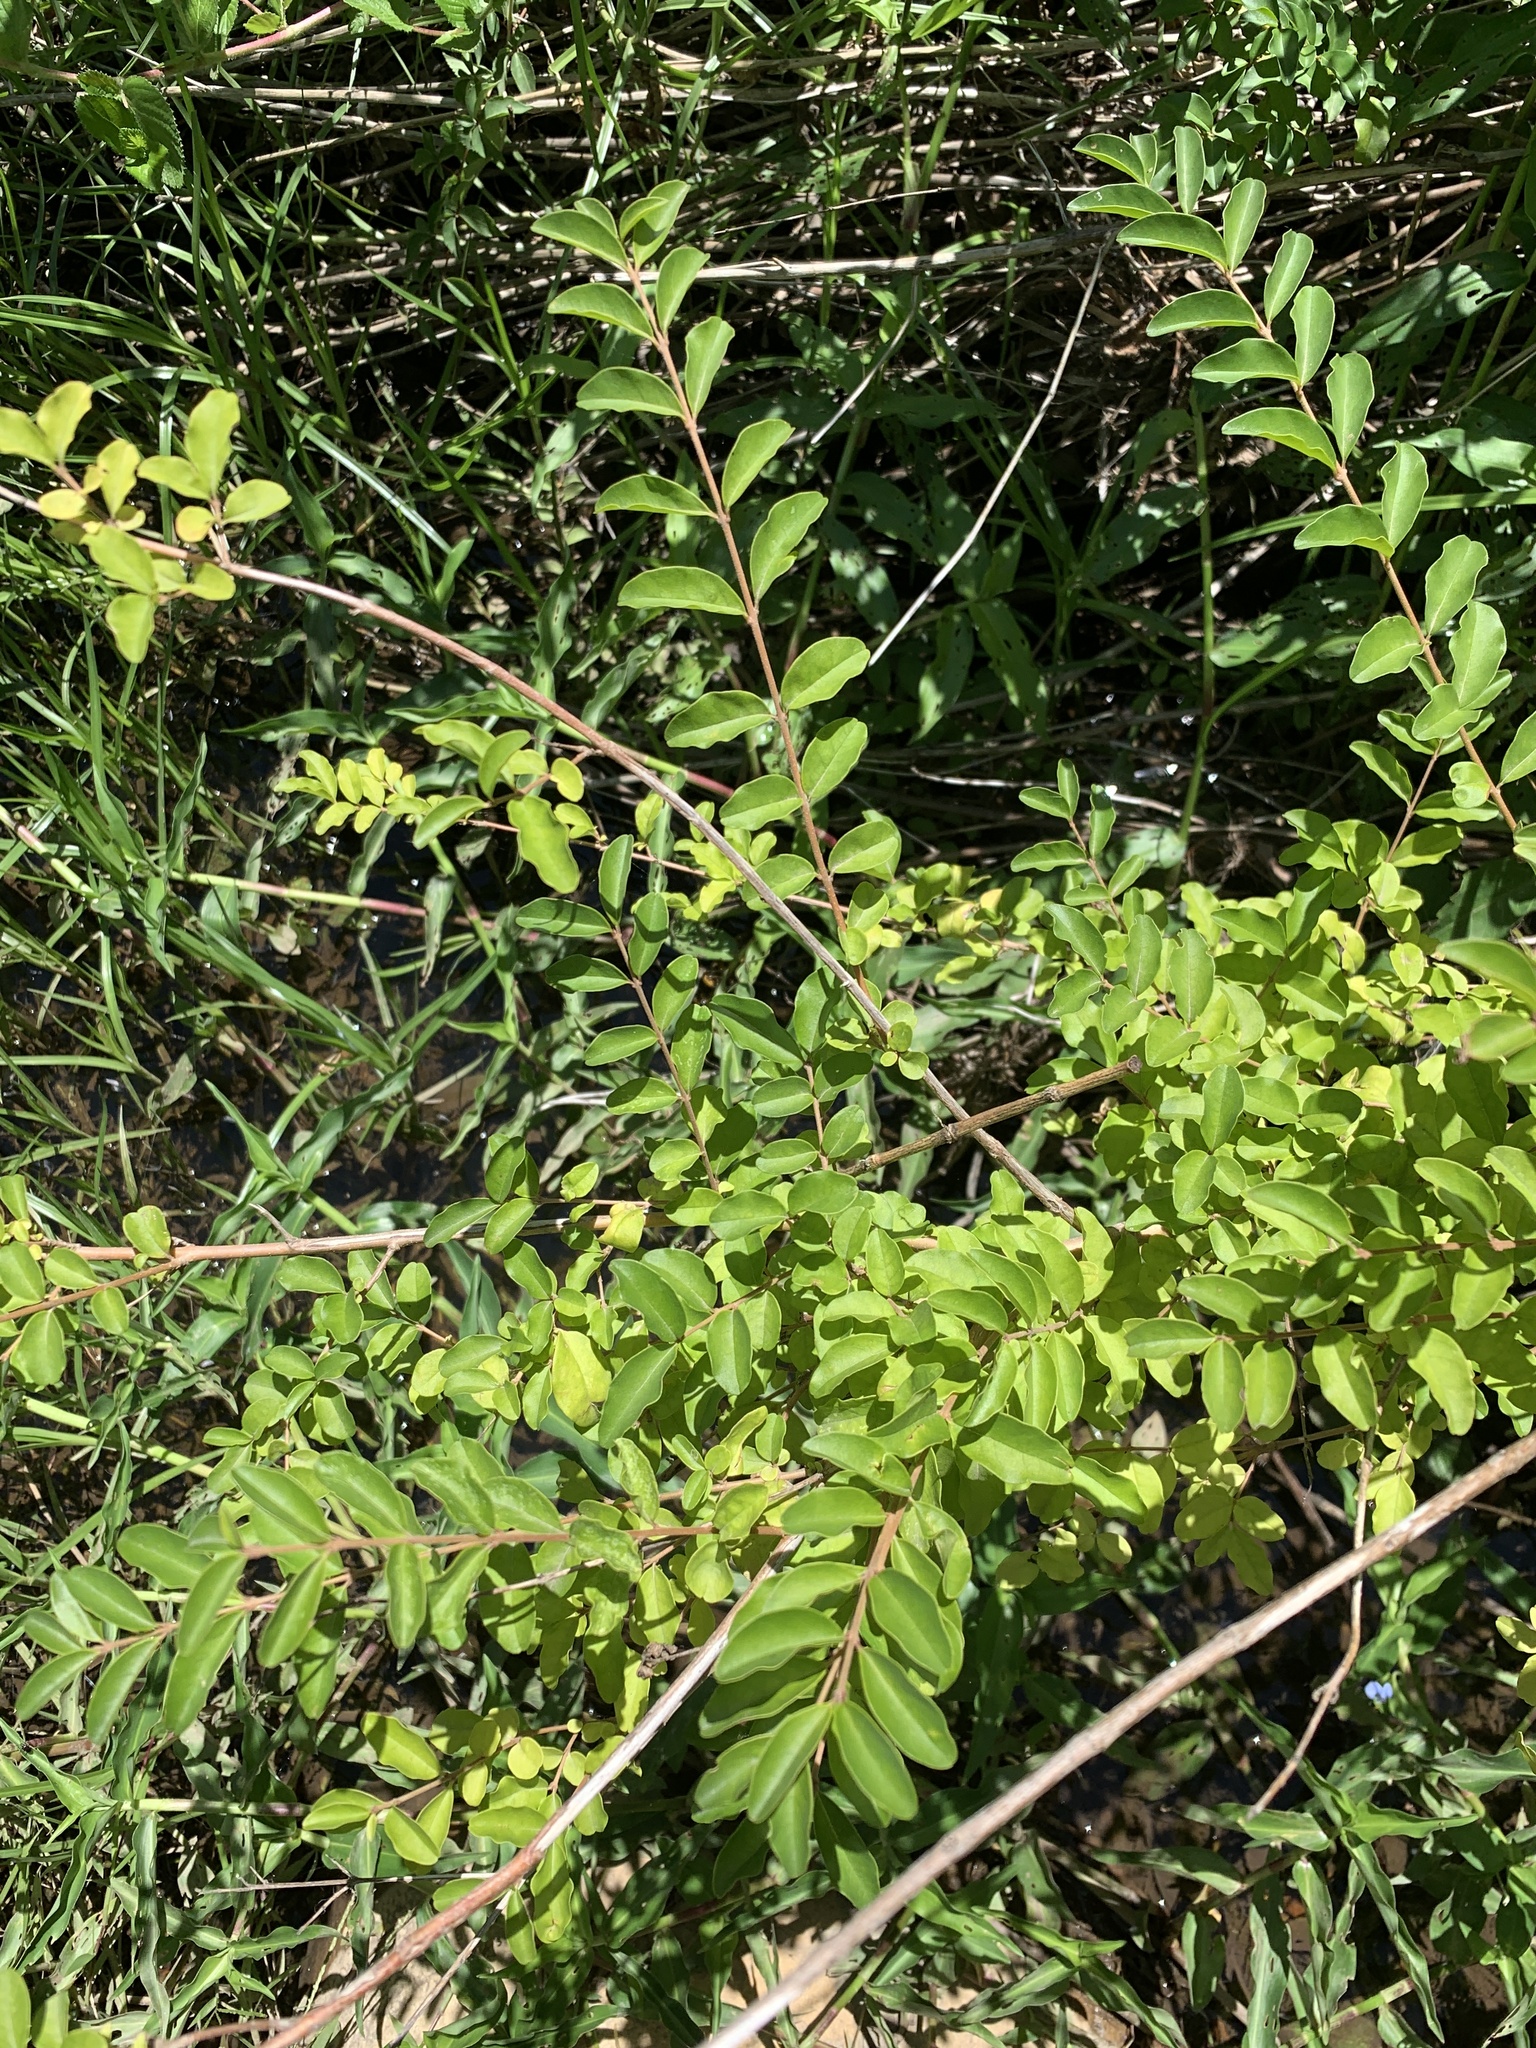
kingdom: Plantae
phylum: Tracheophyta
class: Magnoliopsida
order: Lamiales
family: Oleaceae
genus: Ligustrum
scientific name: Ligustrum sinense
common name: Chinese privet
